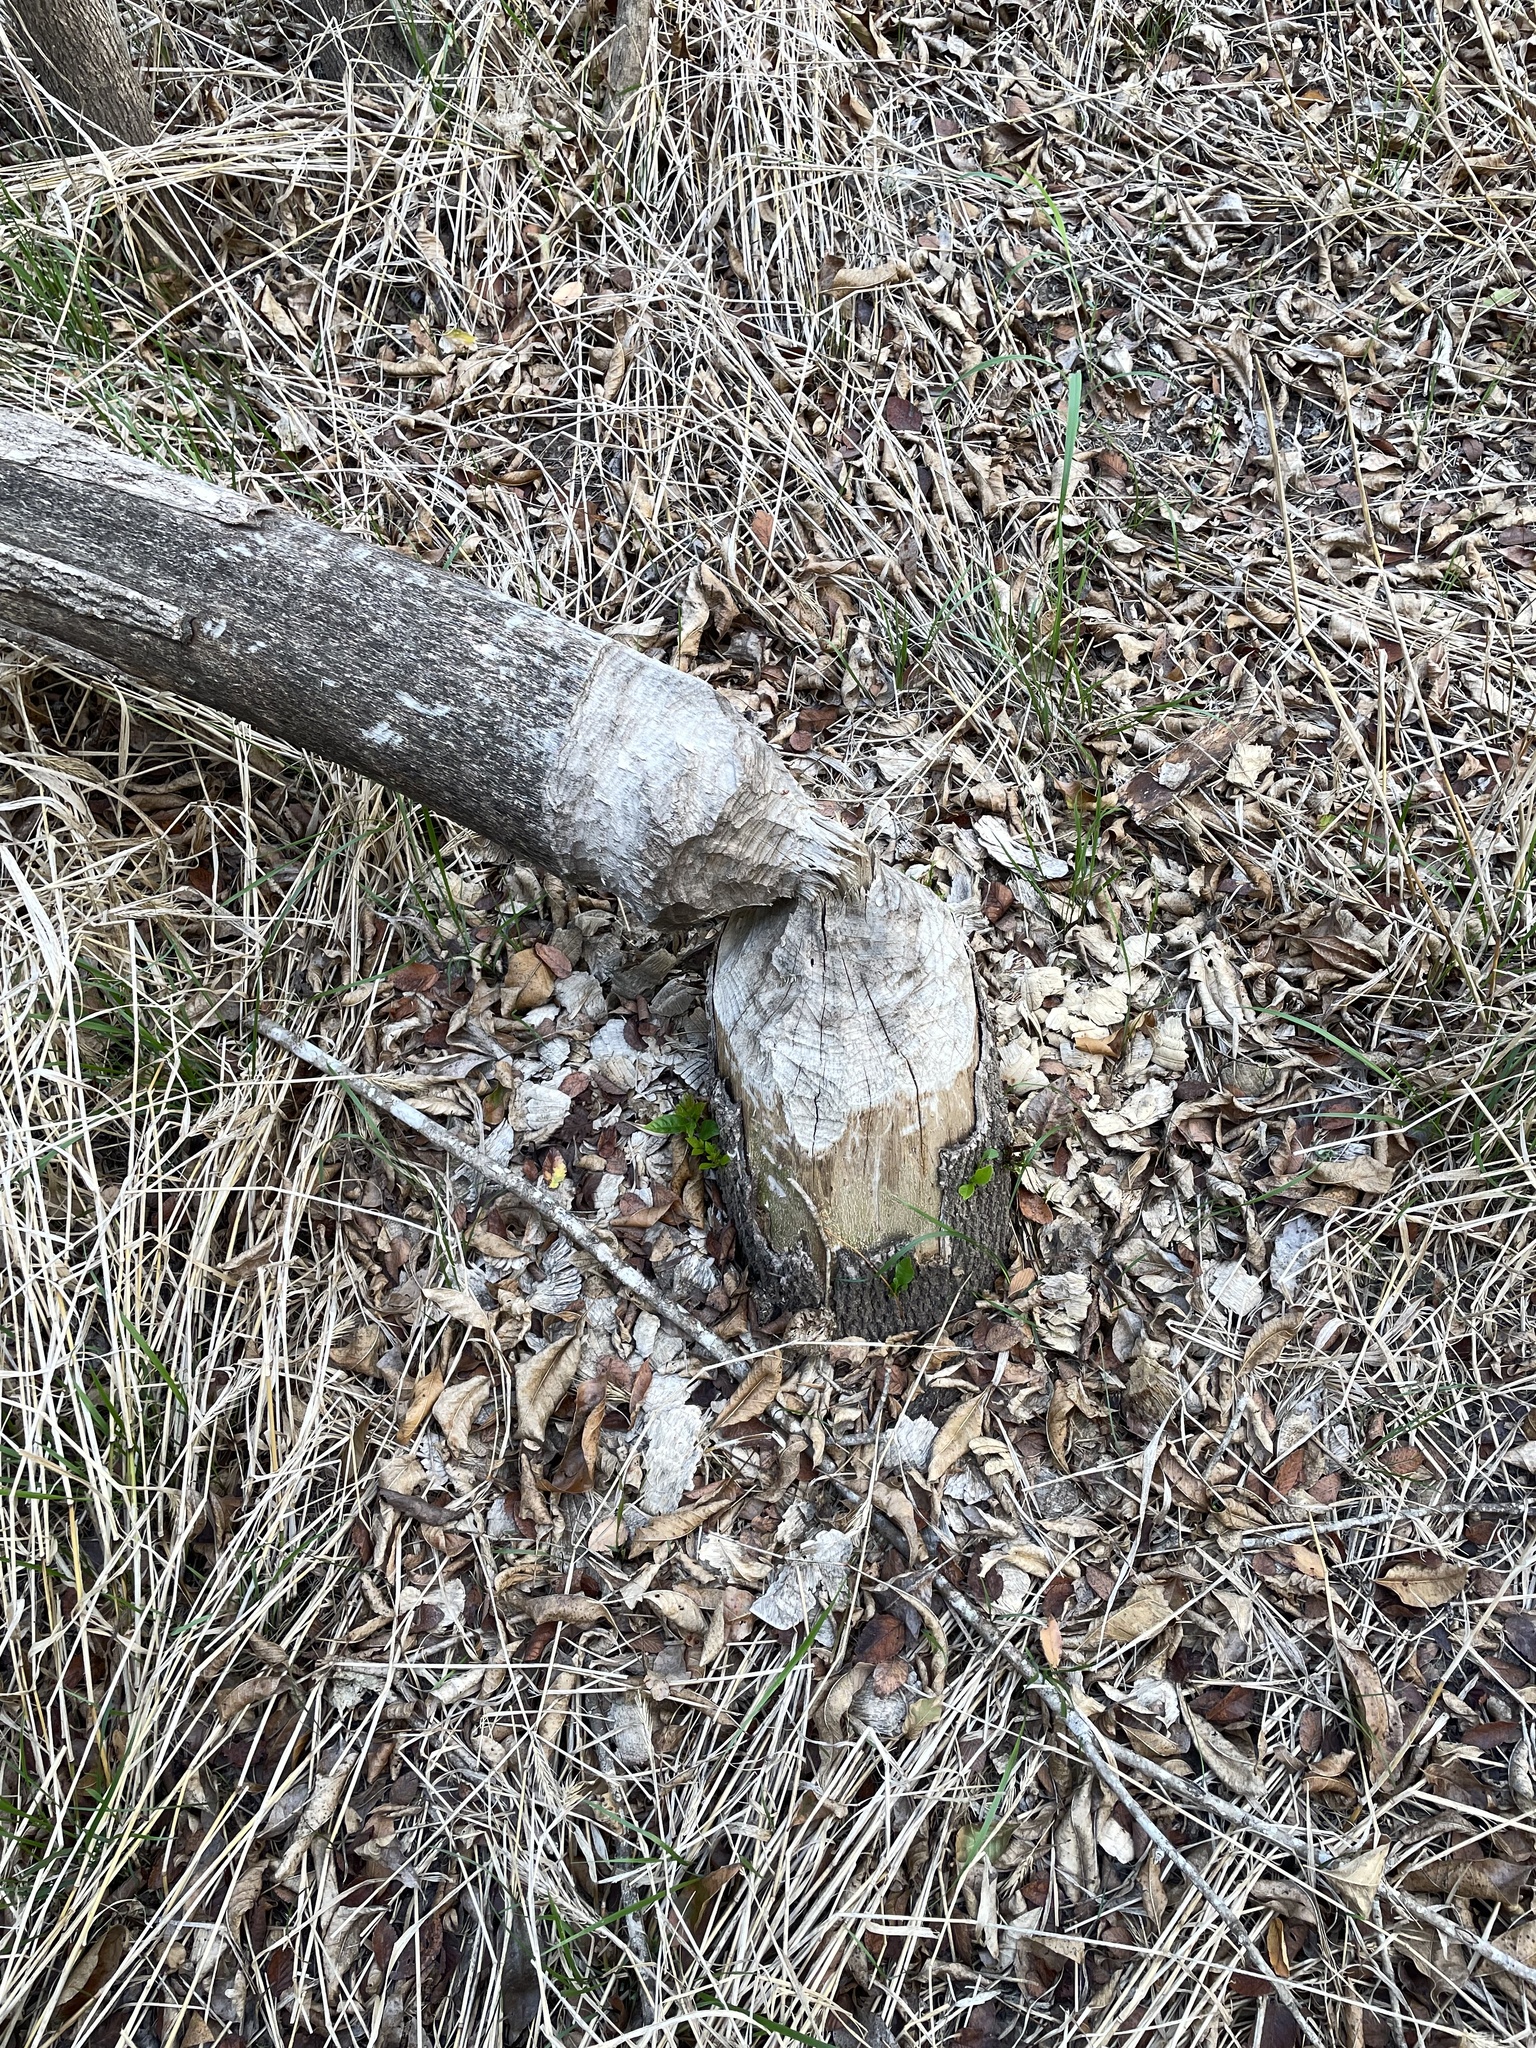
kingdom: Animalia
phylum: Chordata
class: Mammalia
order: Rodentia
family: Castoridae
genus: Castor
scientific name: Castor canadensis
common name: American beaver
